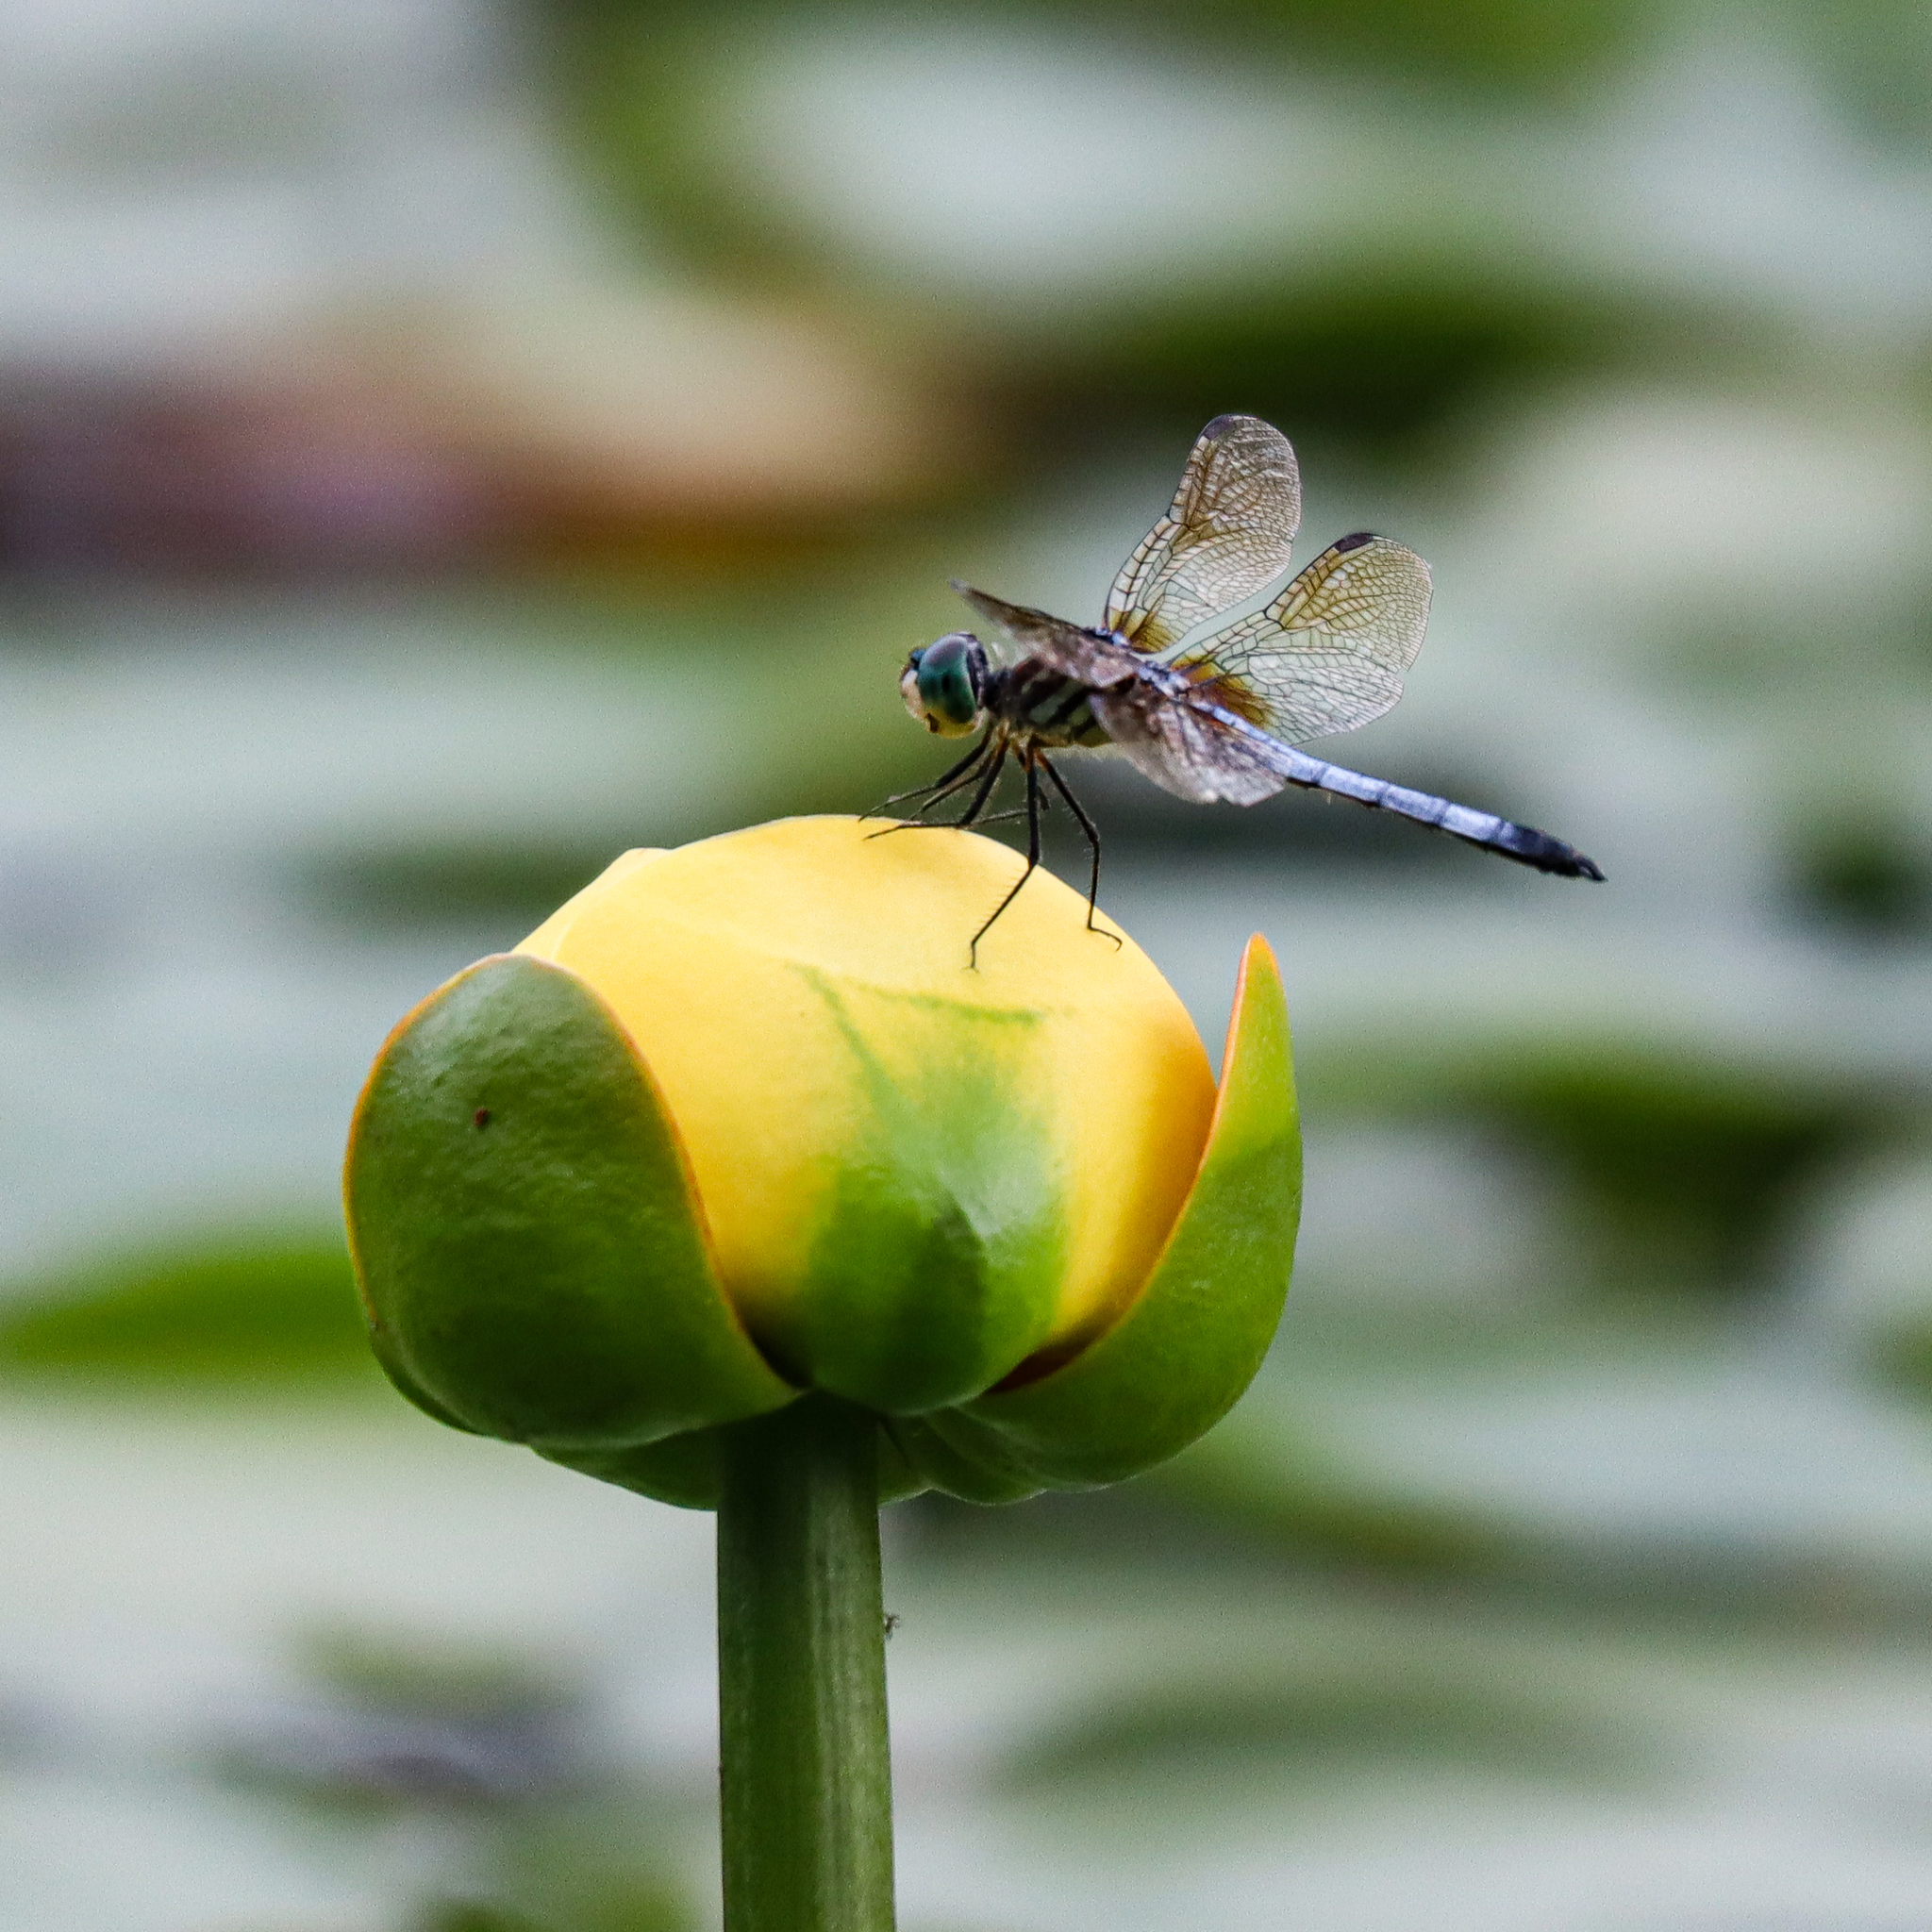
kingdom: Animalia
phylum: Arthropoda
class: Insecta
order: Odonata
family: Libellulidae
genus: Pachydiplax
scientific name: Pachydiplax longipennis
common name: Blue dasher
